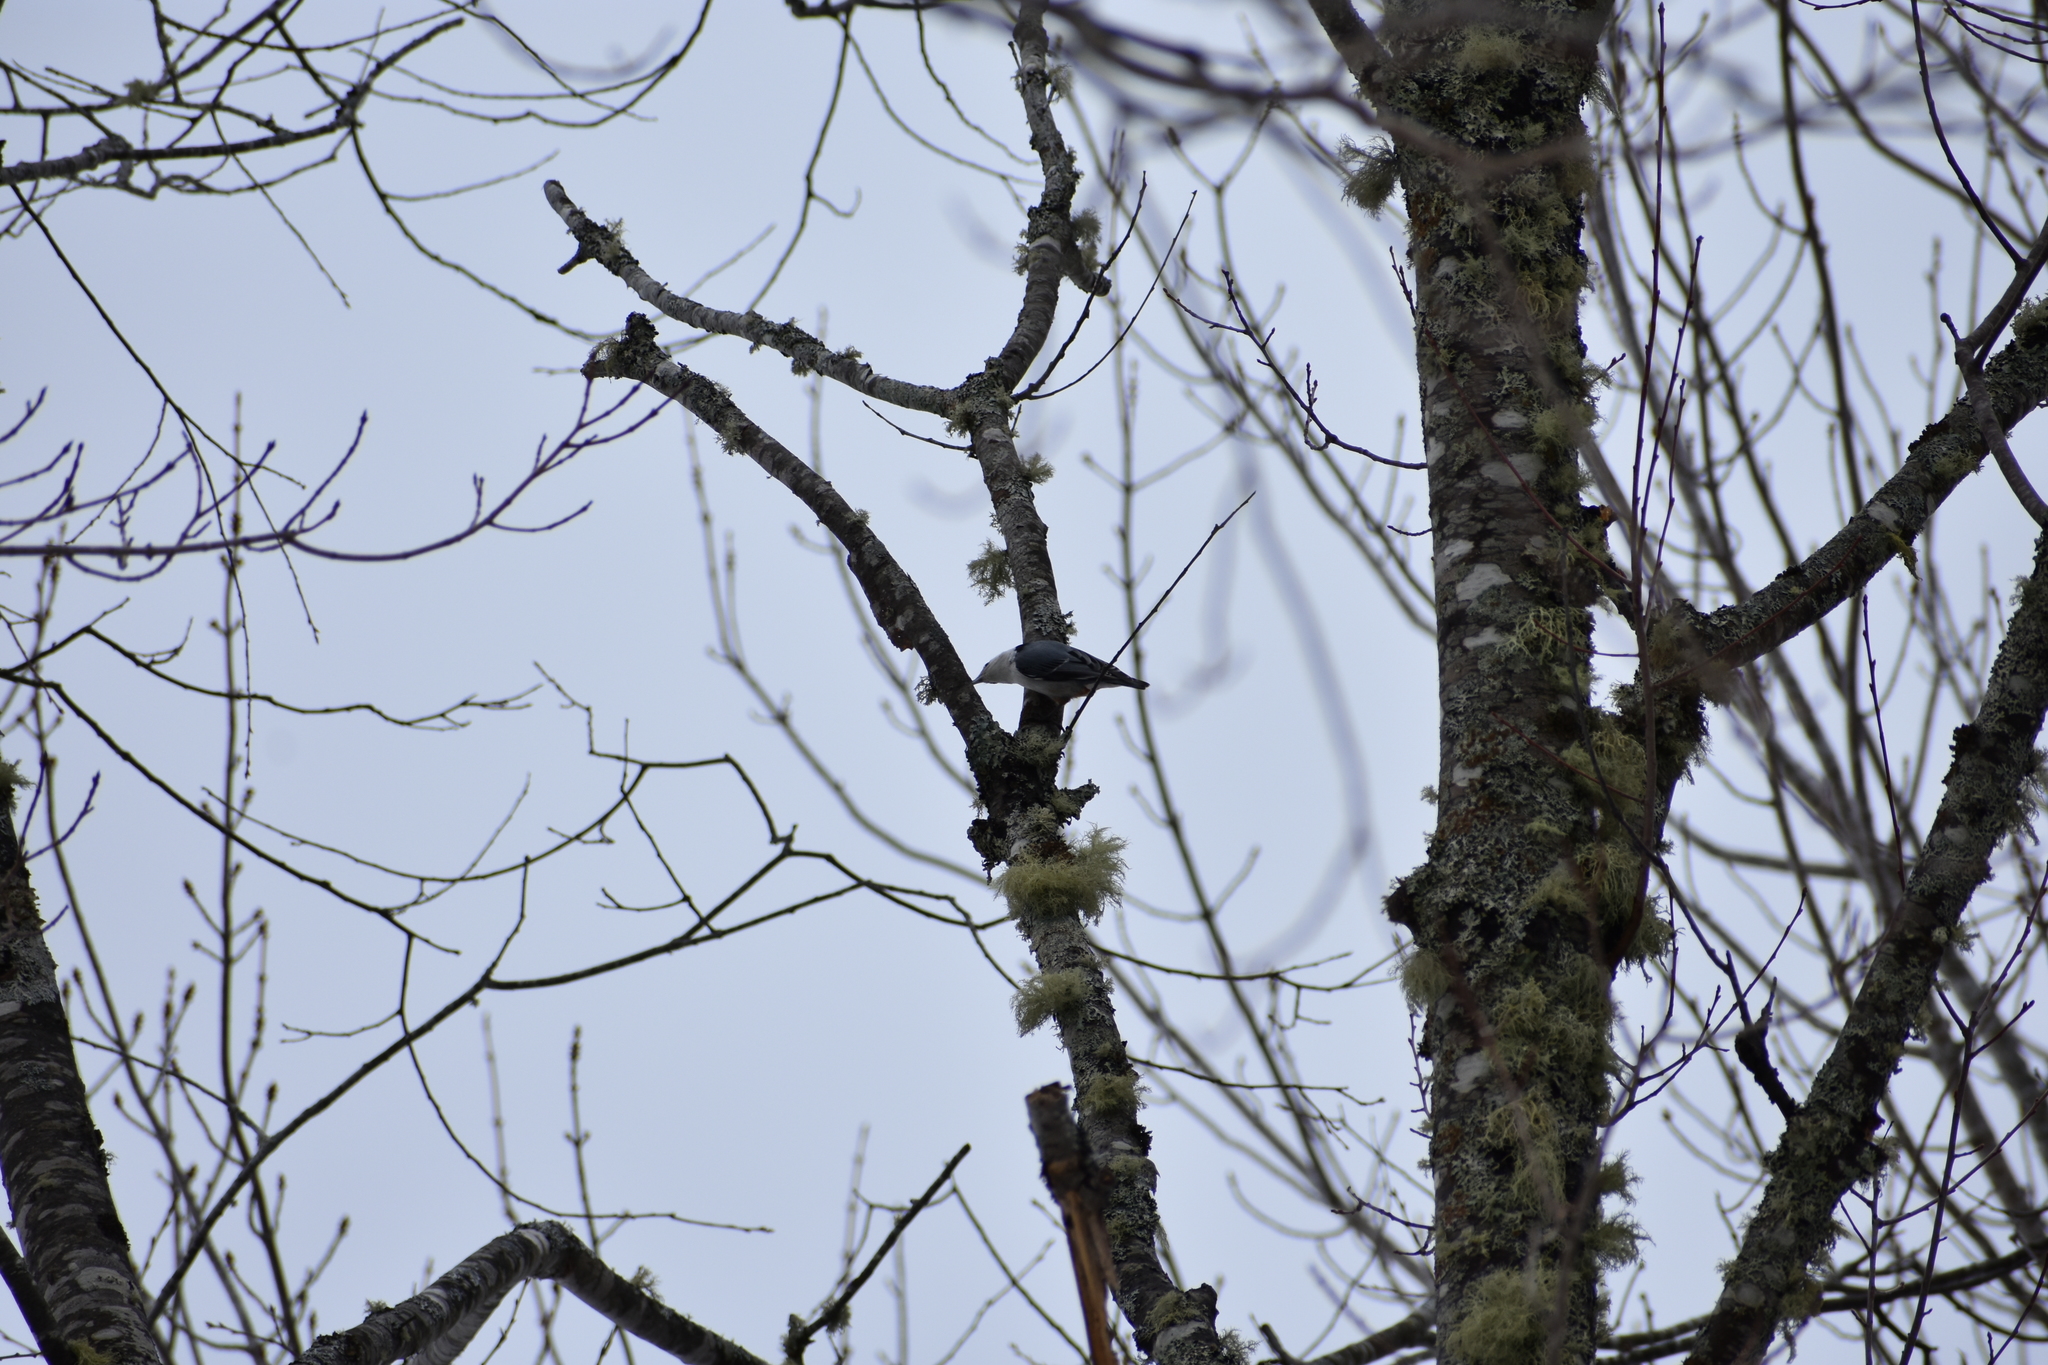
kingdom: Animalia
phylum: Chordata
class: Aves
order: Passeriformes
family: Sittidae
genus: Sitta
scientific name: Sitta carolinensis
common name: White-breasted nuthatch
